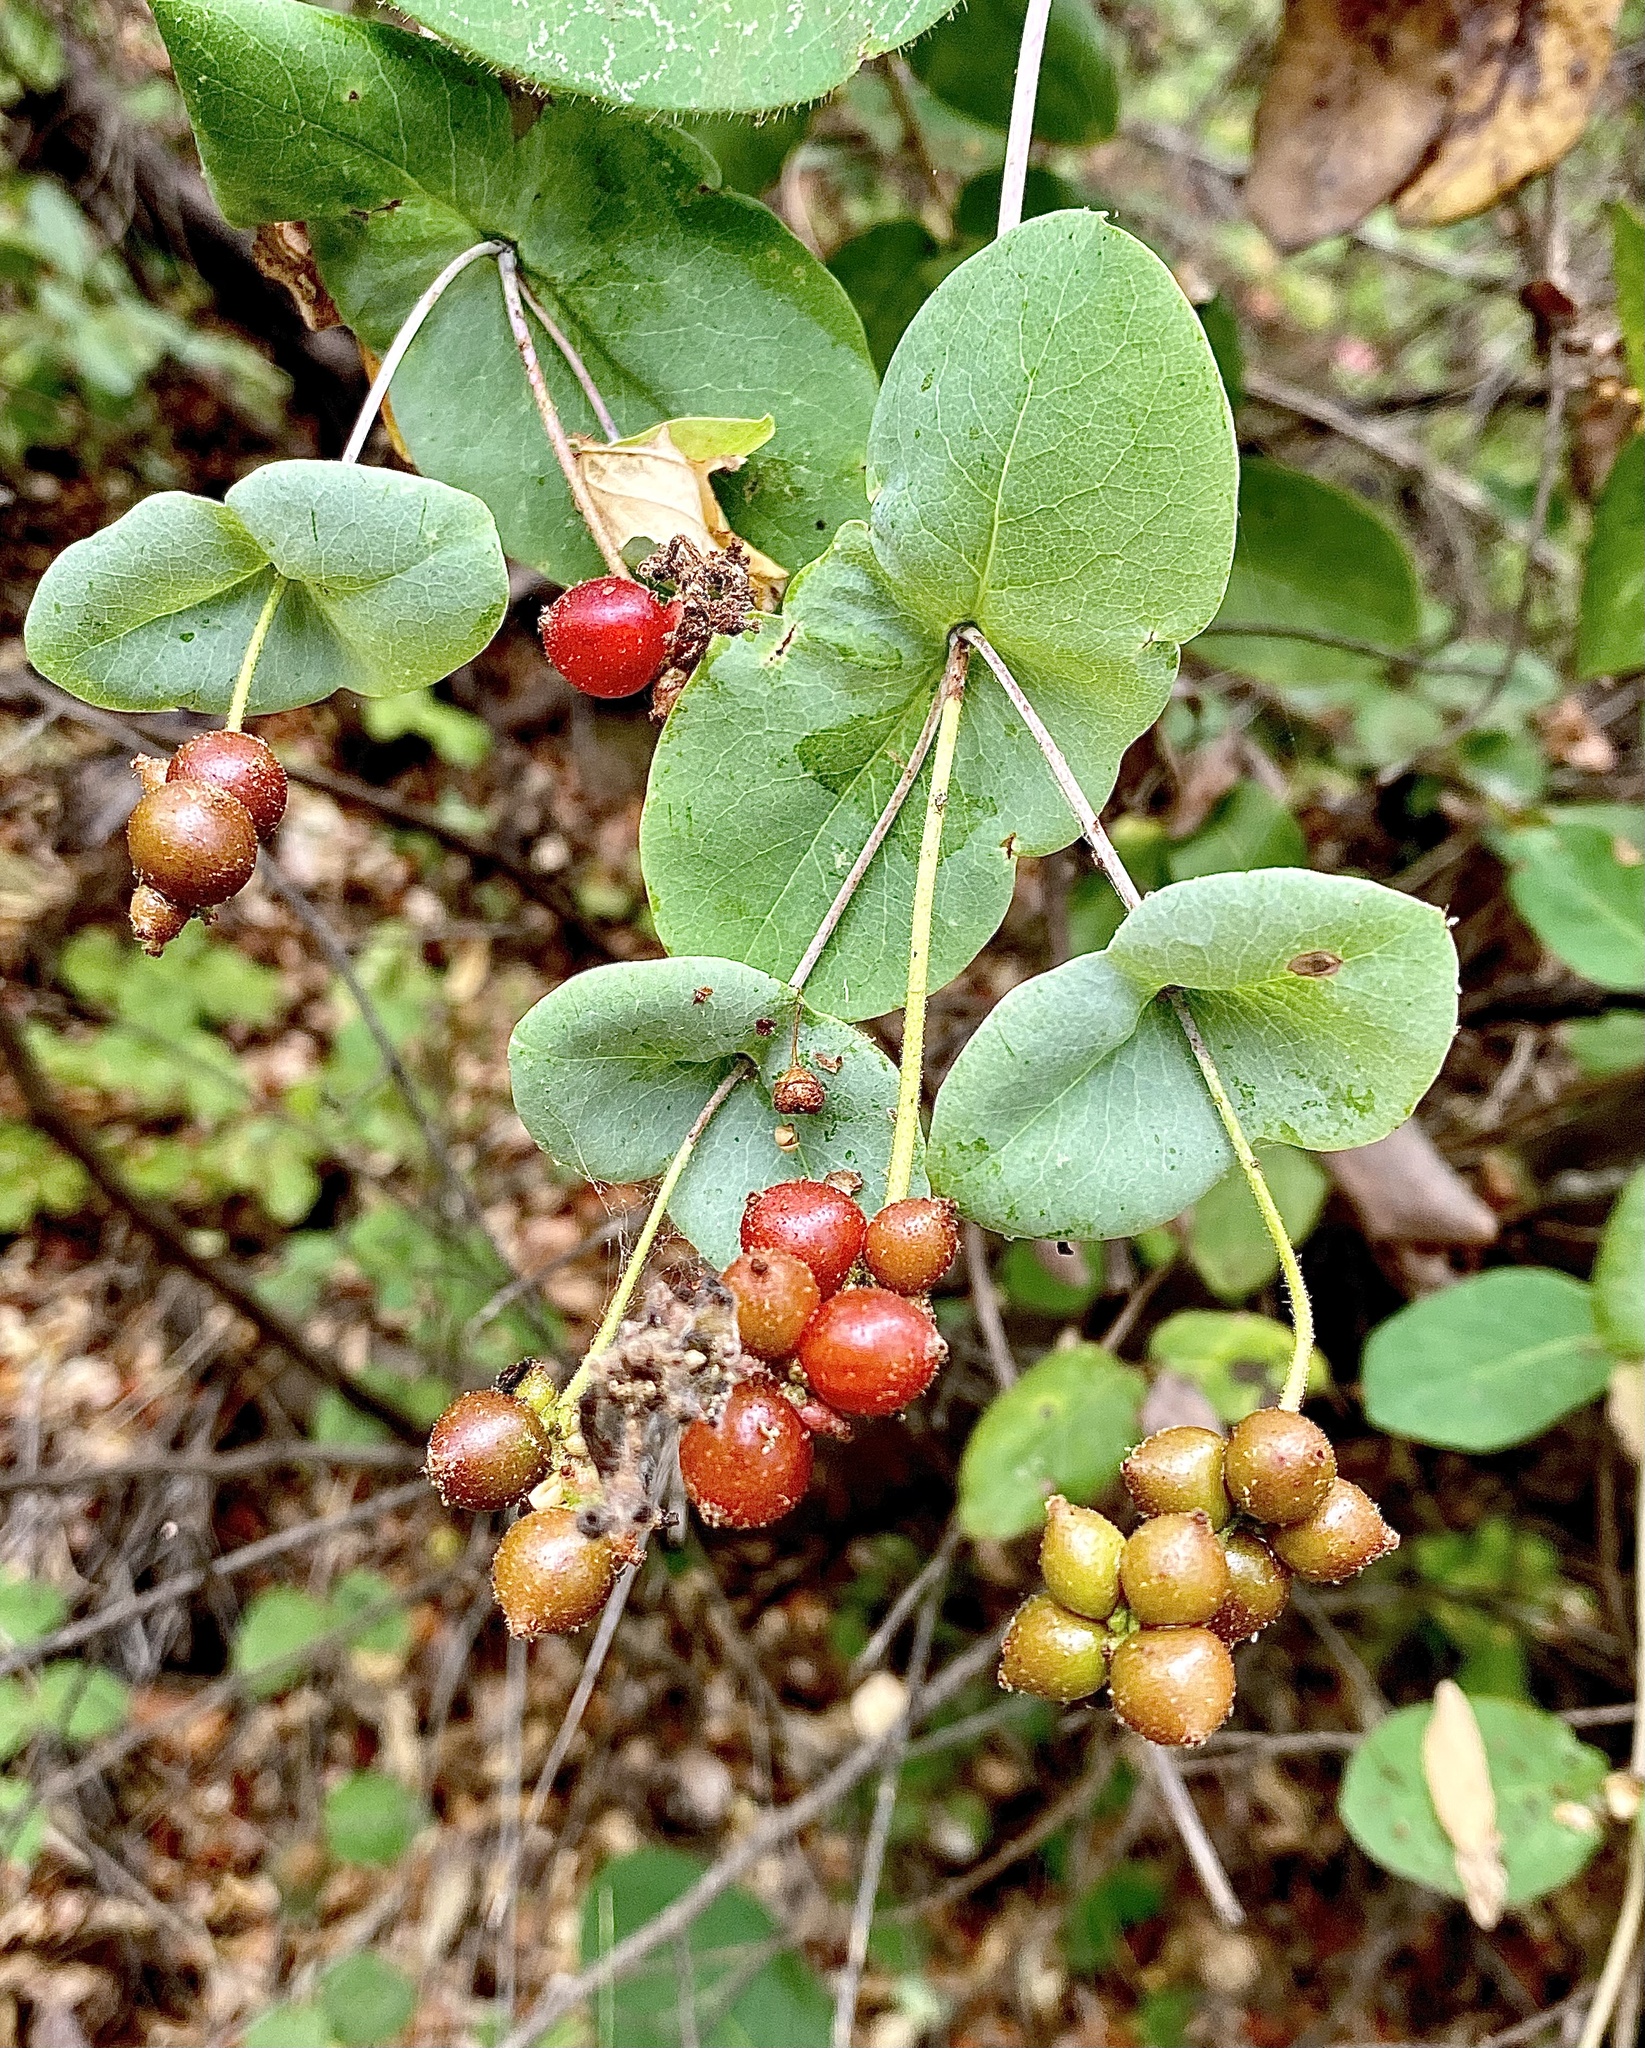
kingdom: Plantae
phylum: Tracheophyta
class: Magnoliopsida
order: Dipsacales
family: Caprifoliaceae
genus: Lonicera
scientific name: Lonicera hispidula
